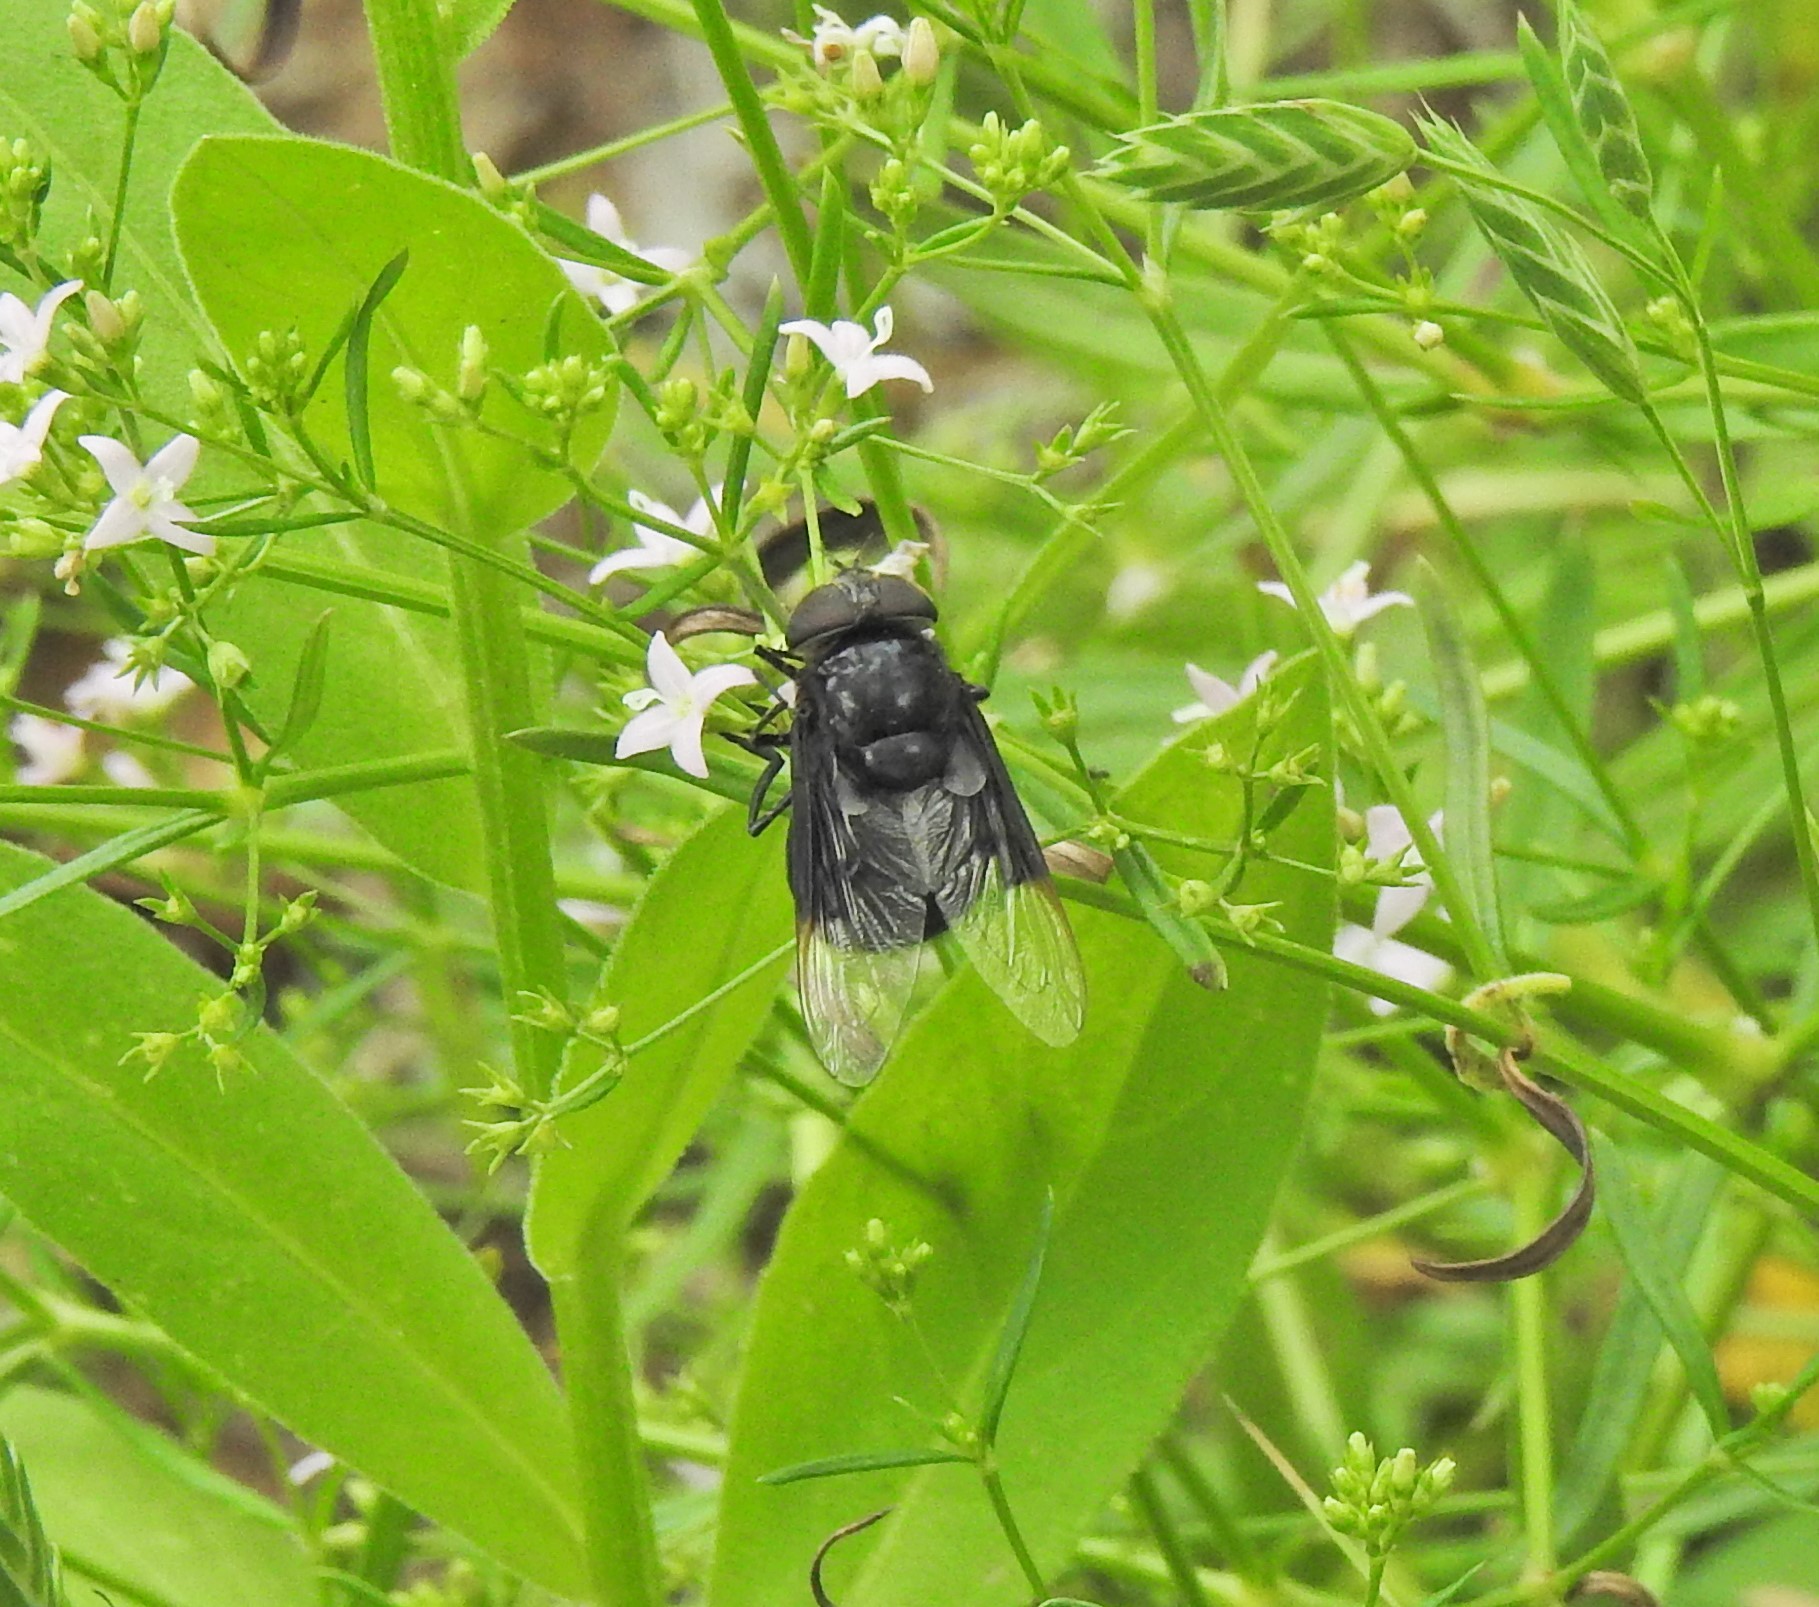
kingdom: Animalia
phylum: Arthropoda
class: Insecta
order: Diptera
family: Syrphidae
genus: Copestylum
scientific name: Copestylum mexicanum
